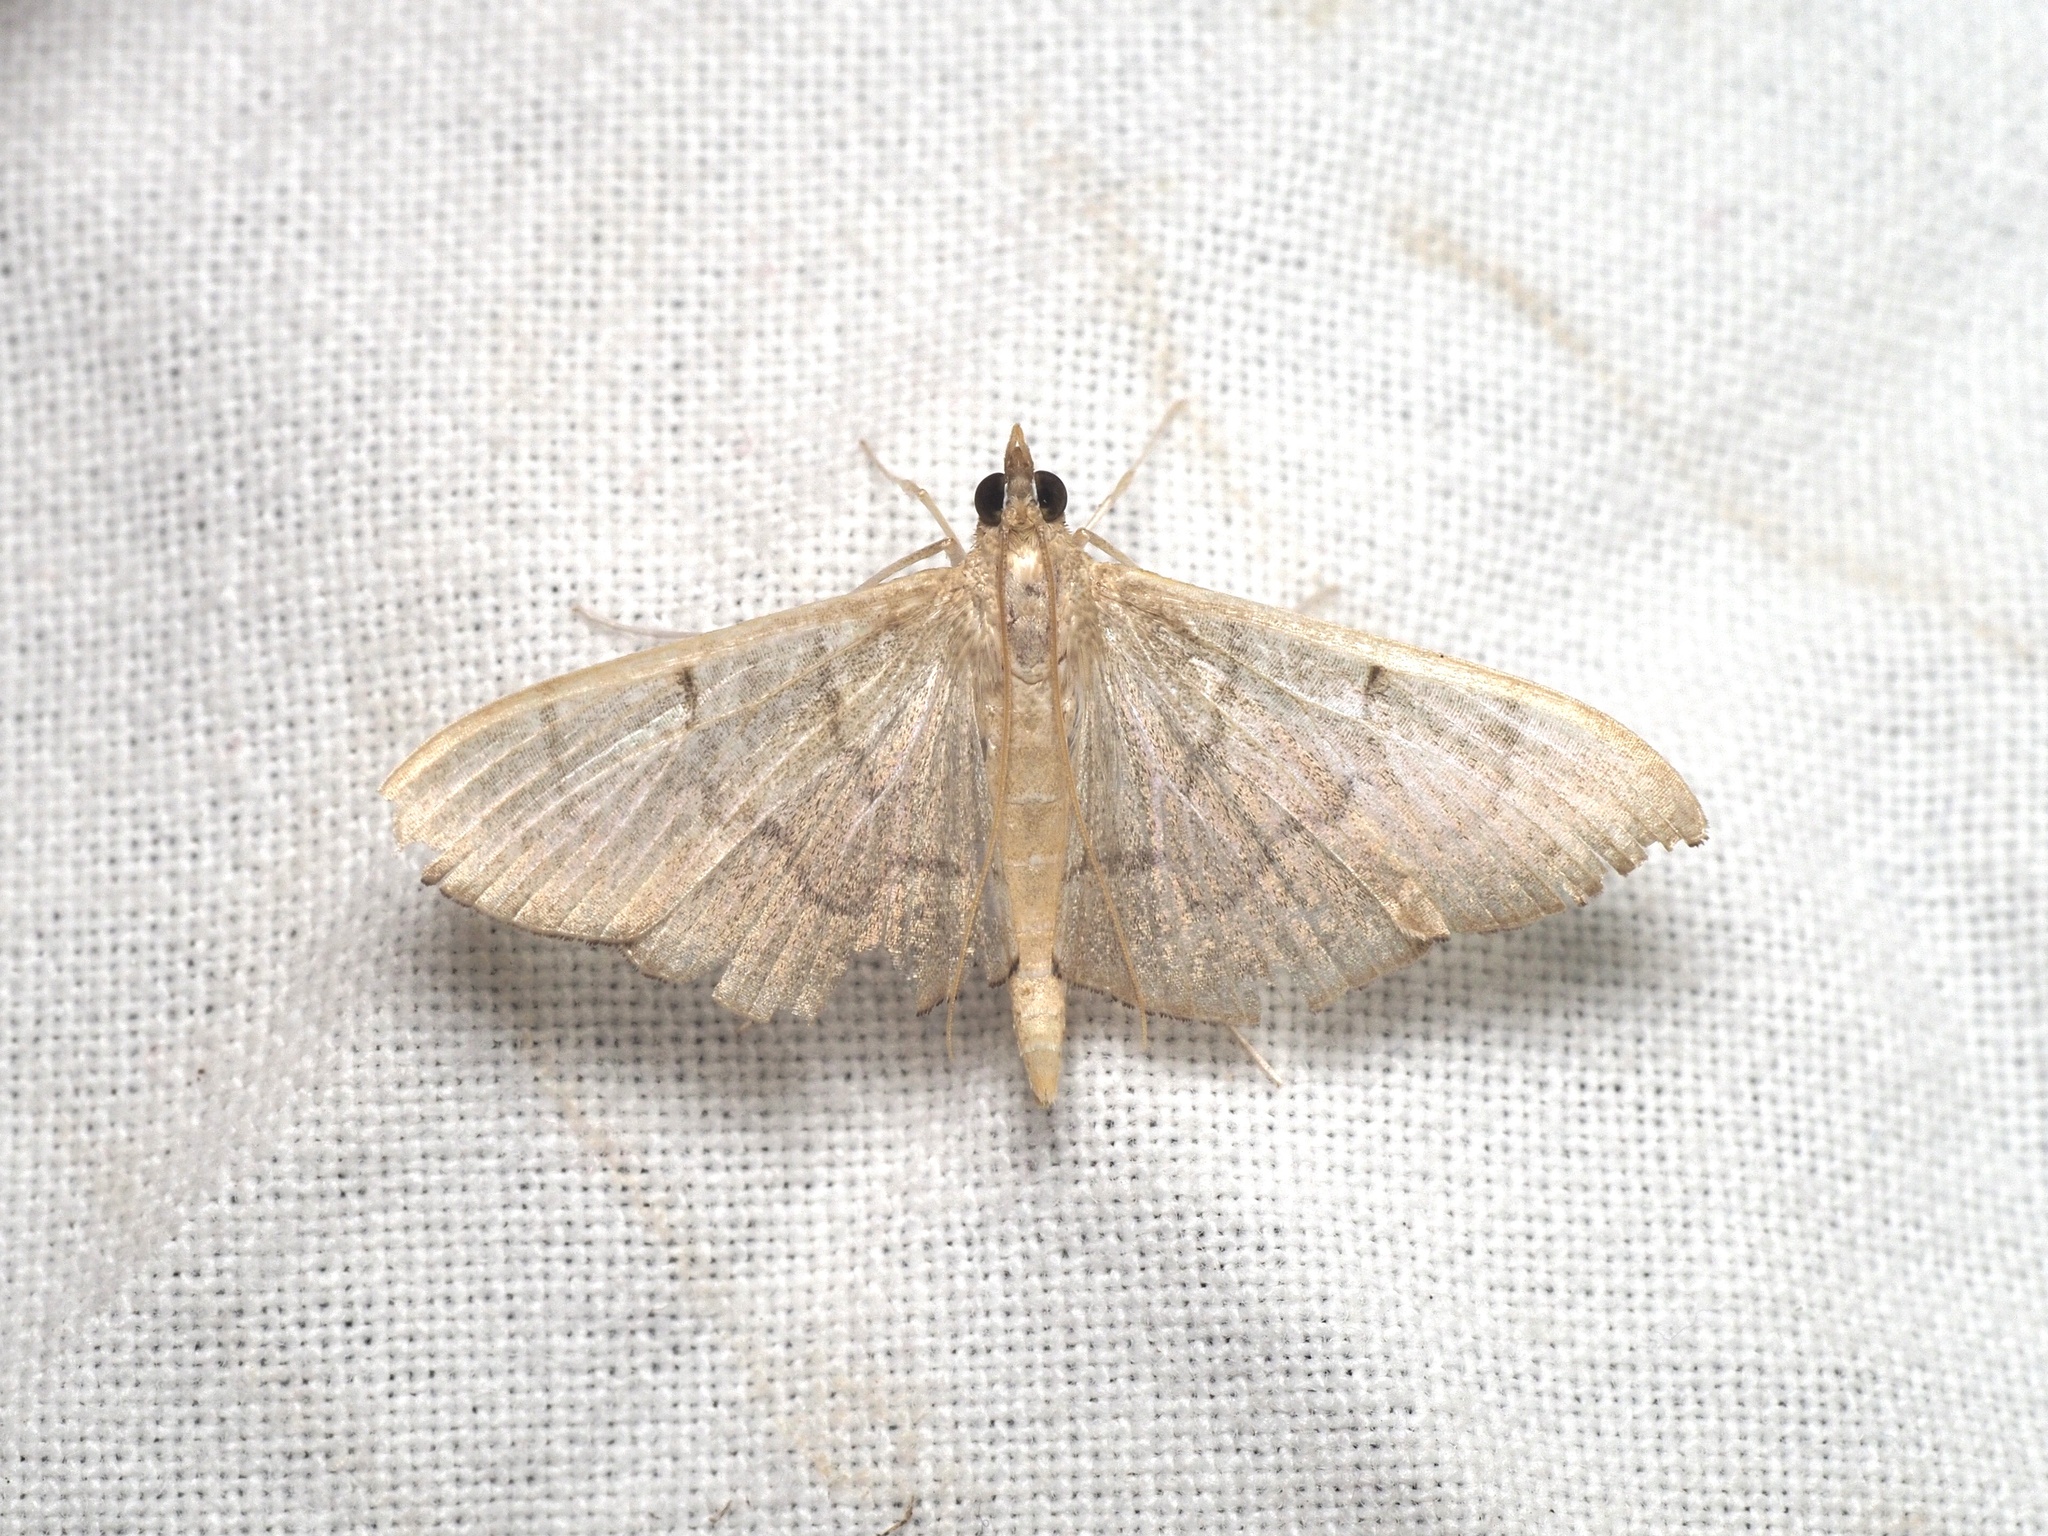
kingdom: Animalia
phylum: Arthropoda
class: Insecta
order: Lepidoptera
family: Crambidae
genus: Lamprophaia
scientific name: Lamprophaia ablactalis
